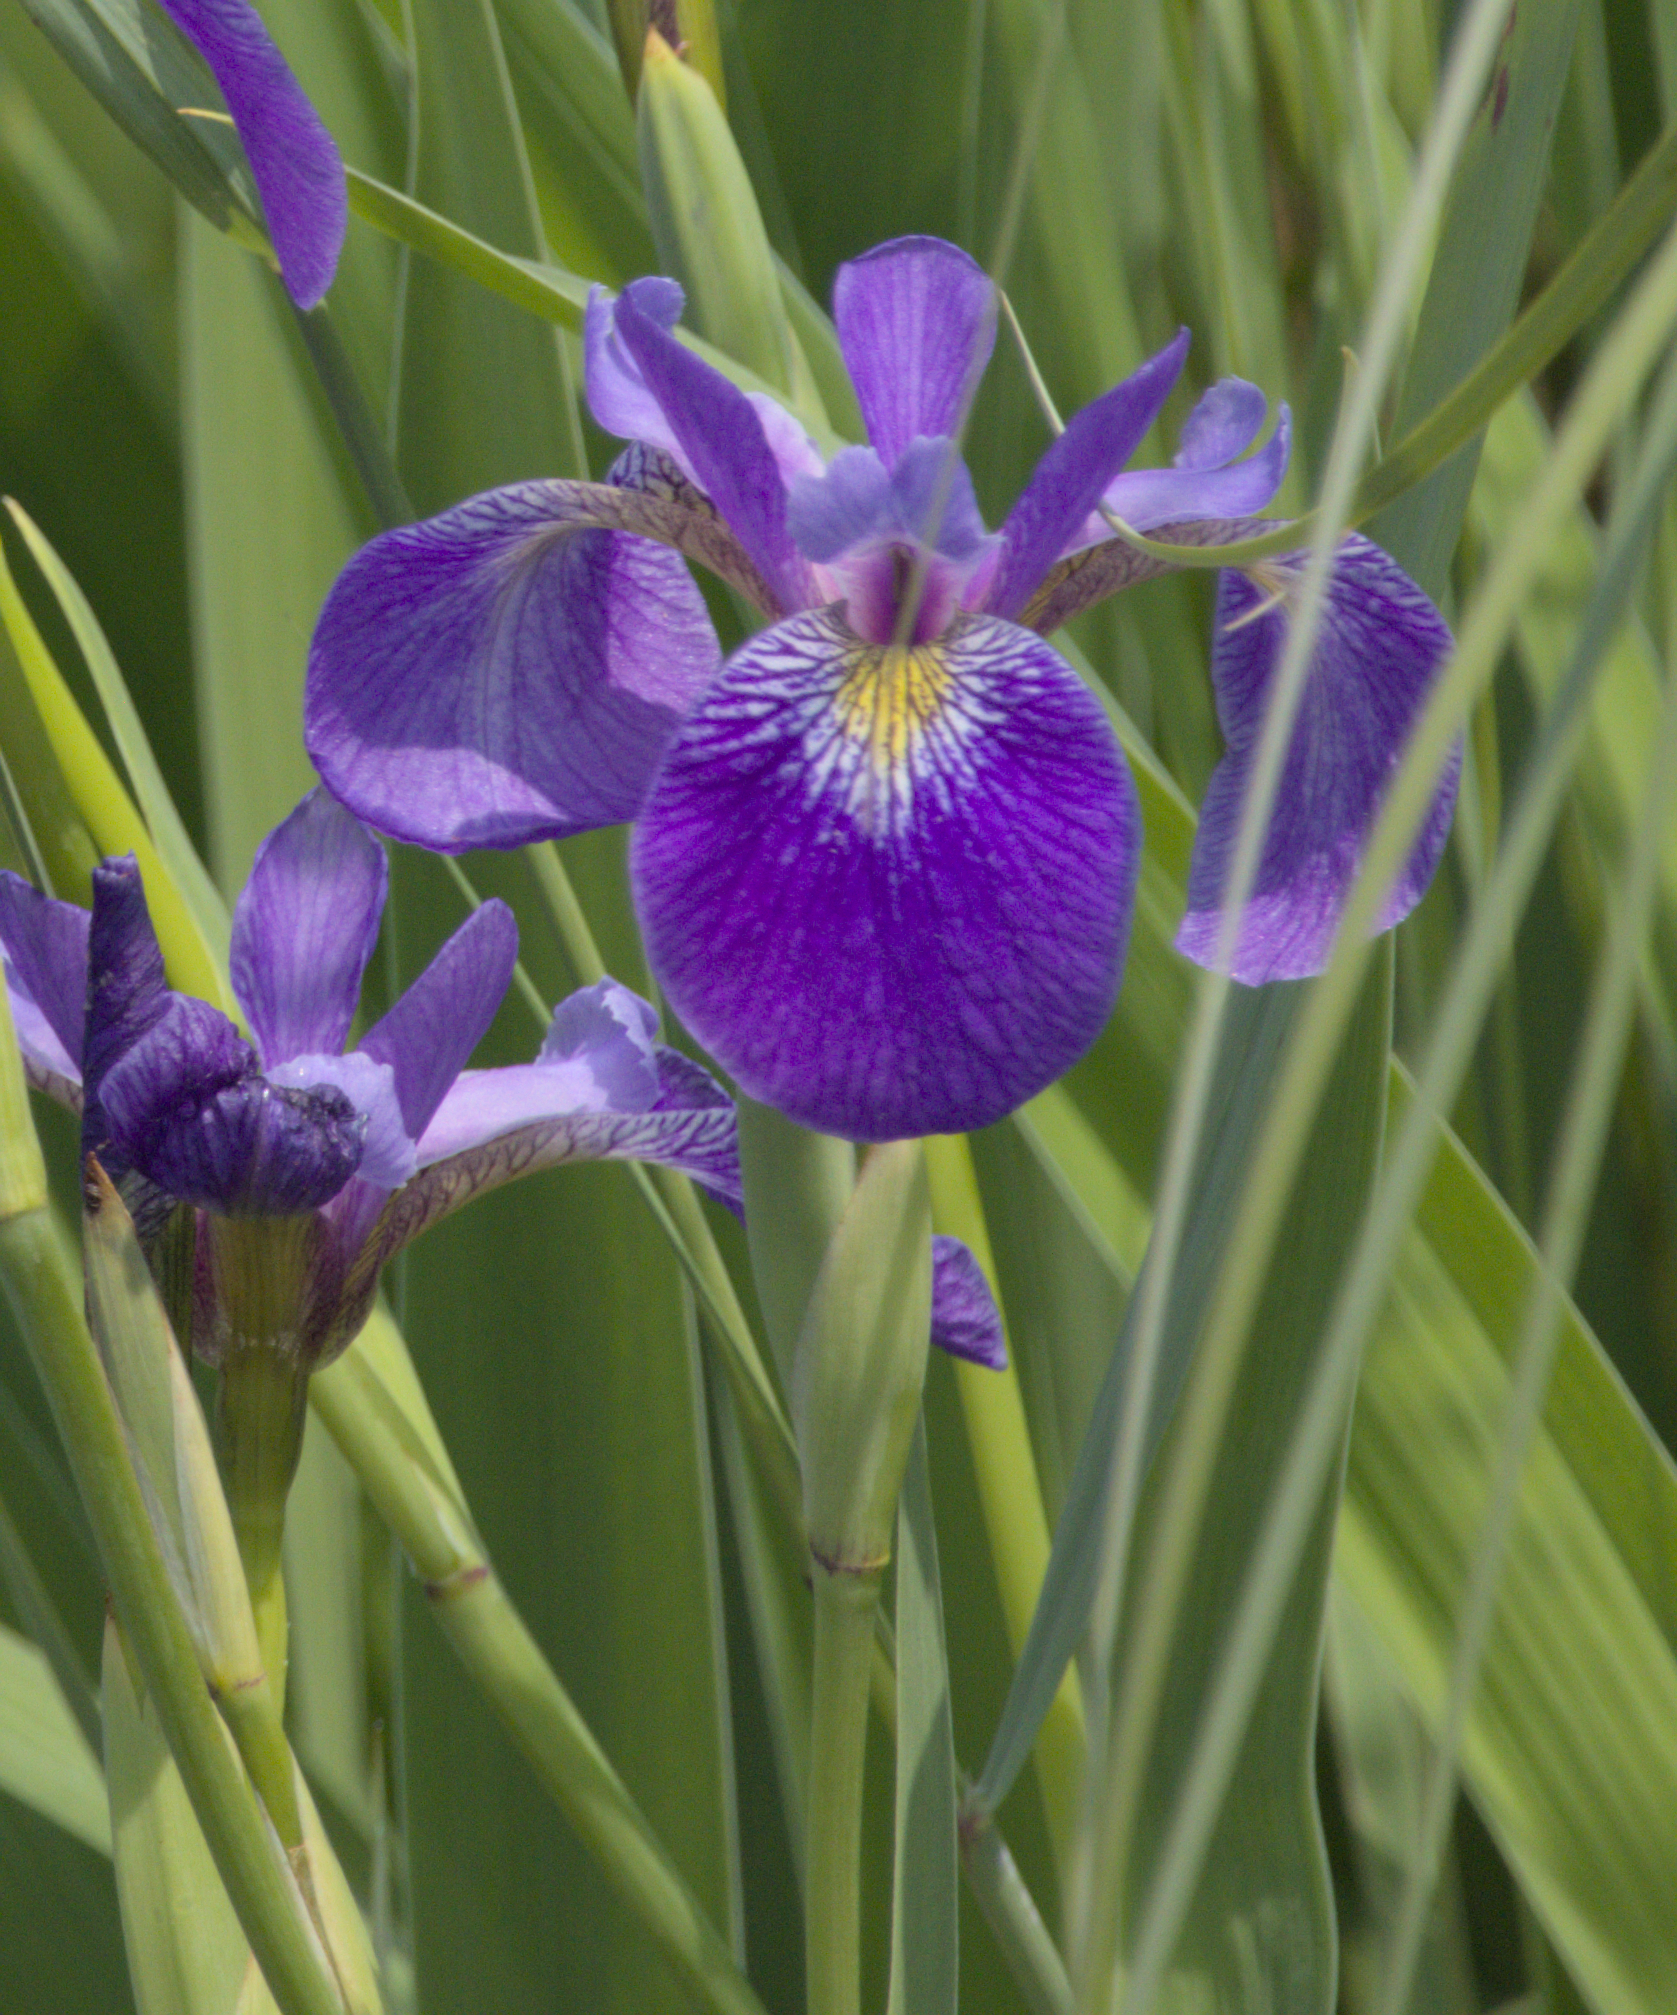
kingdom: Plantae
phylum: Tracheophyta
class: Liliopsida
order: Asparagales
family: Iridaceae
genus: Iris
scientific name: Iris versicolor
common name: Purple iris
